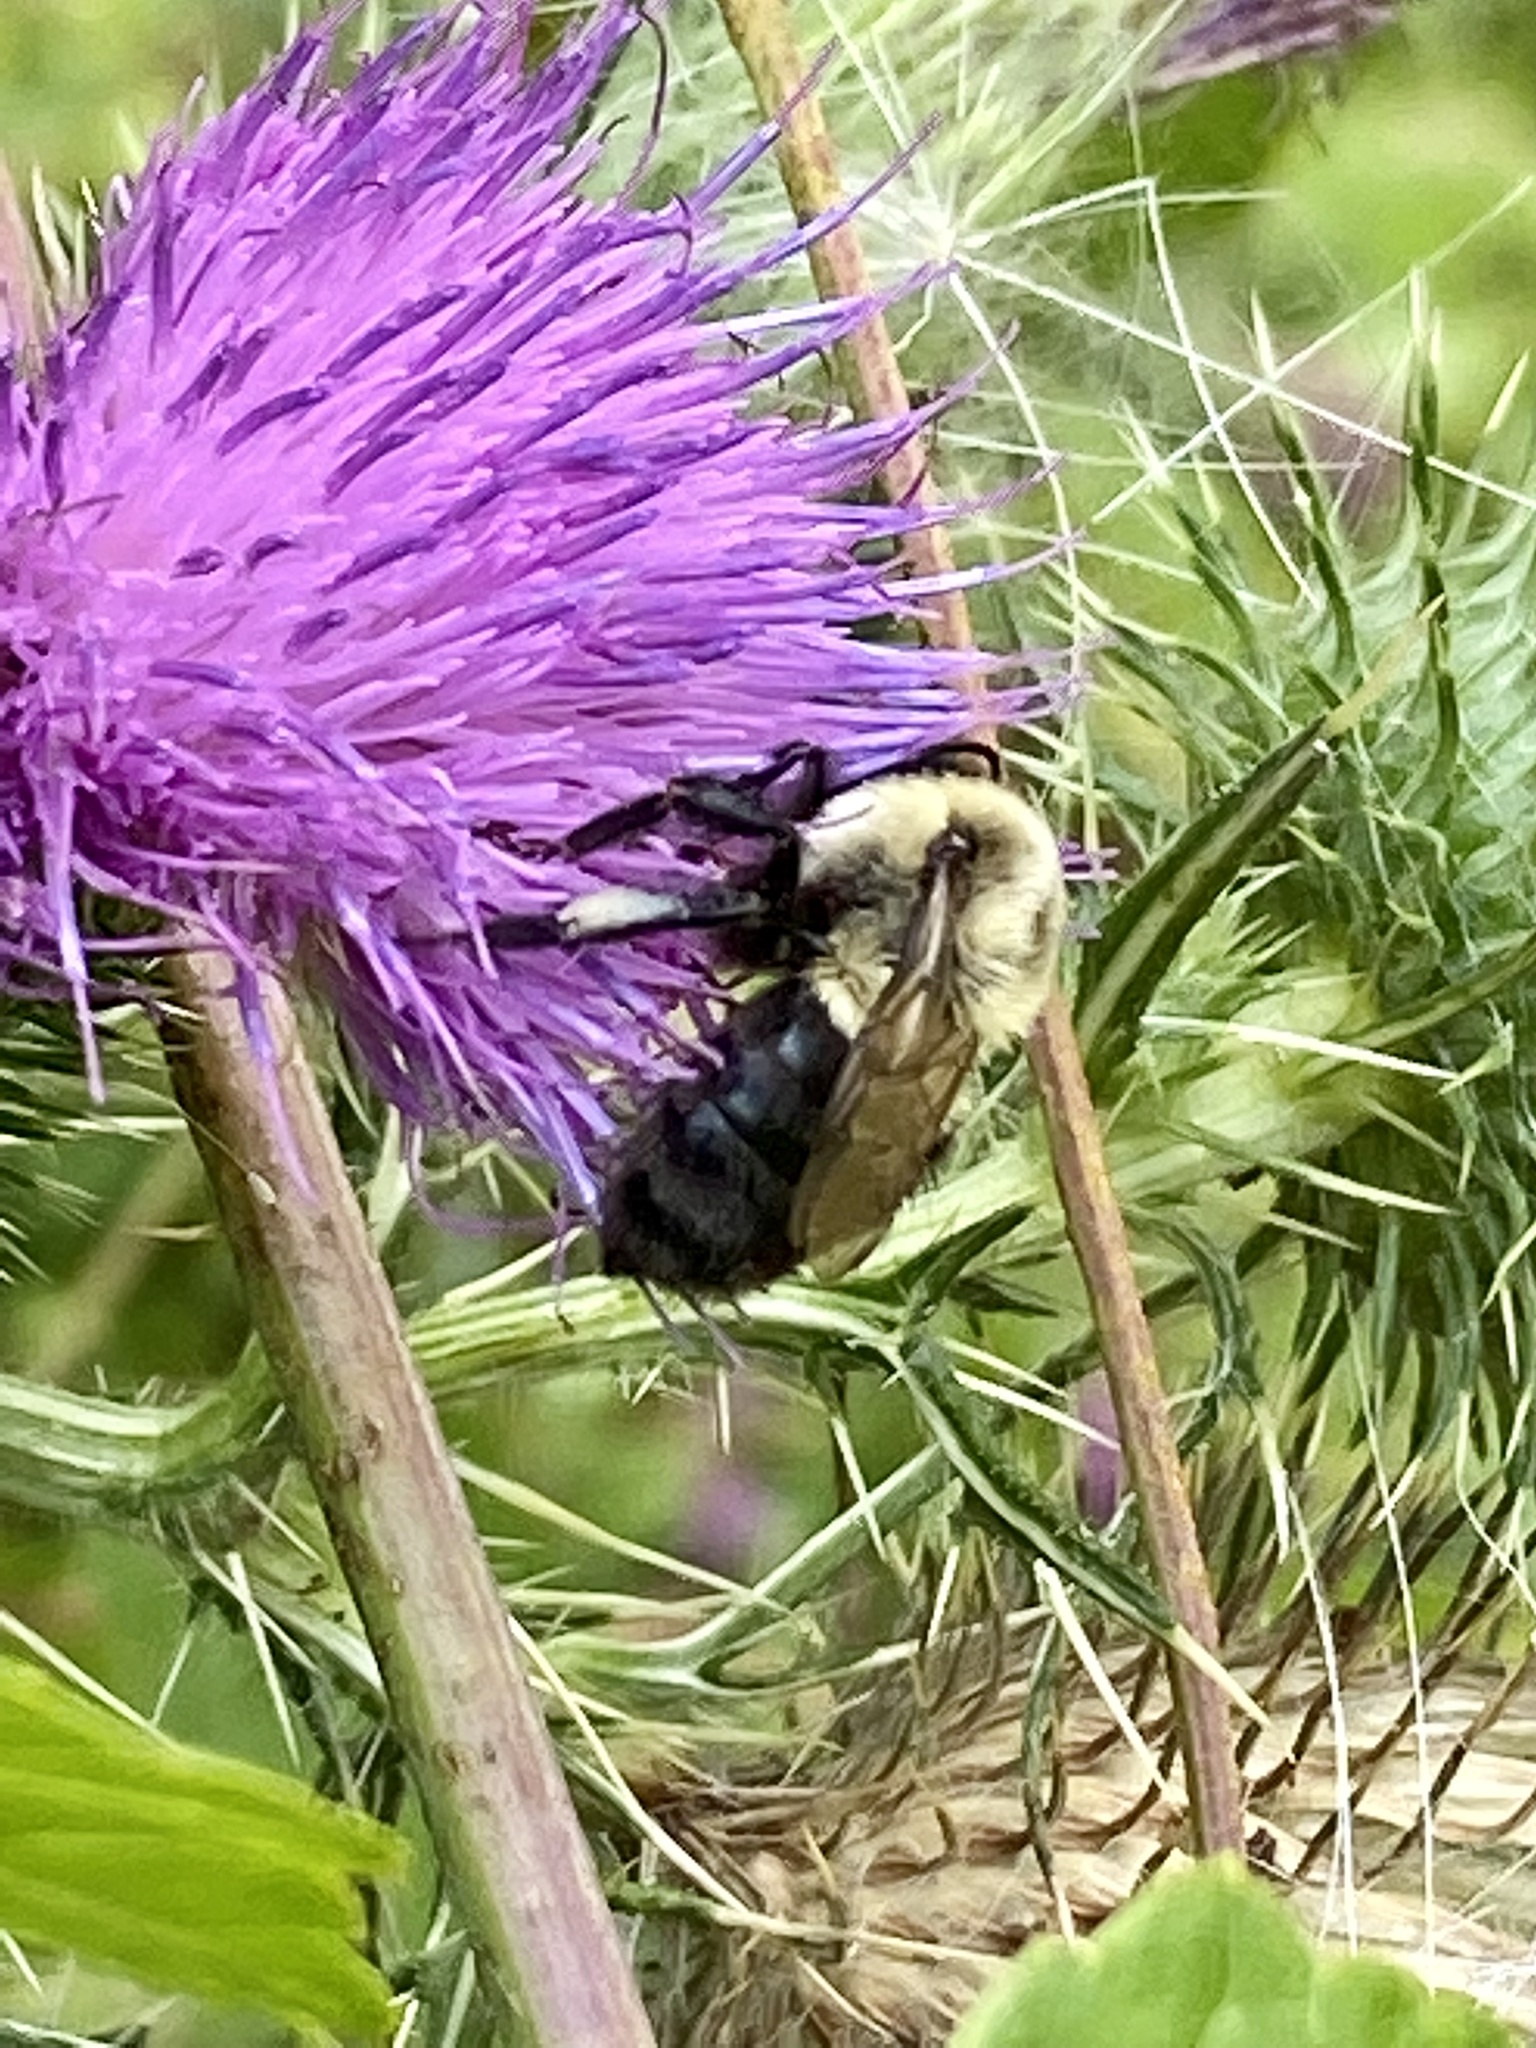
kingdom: Animalia
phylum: Arthropoda
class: Insecta
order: Hymenoptera
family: Apidae
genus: Bombus
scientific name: Bombus impatiens
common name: Common eastern bumble bee
